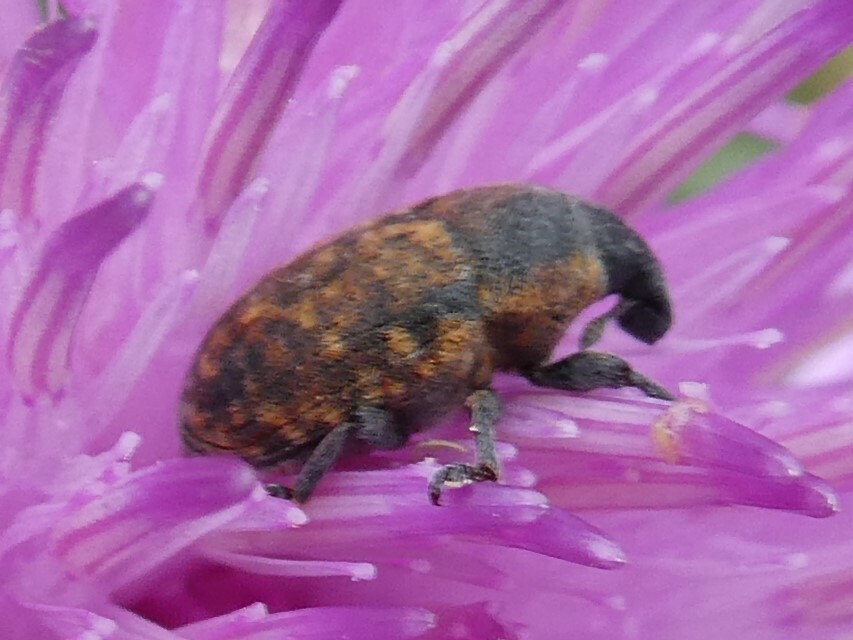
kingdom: Animalia
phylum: Arthropoda
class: Insecta
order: Coleoptera
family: Curculionidae
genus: Larinus
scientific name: Larinus obtusus
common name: Weevil
